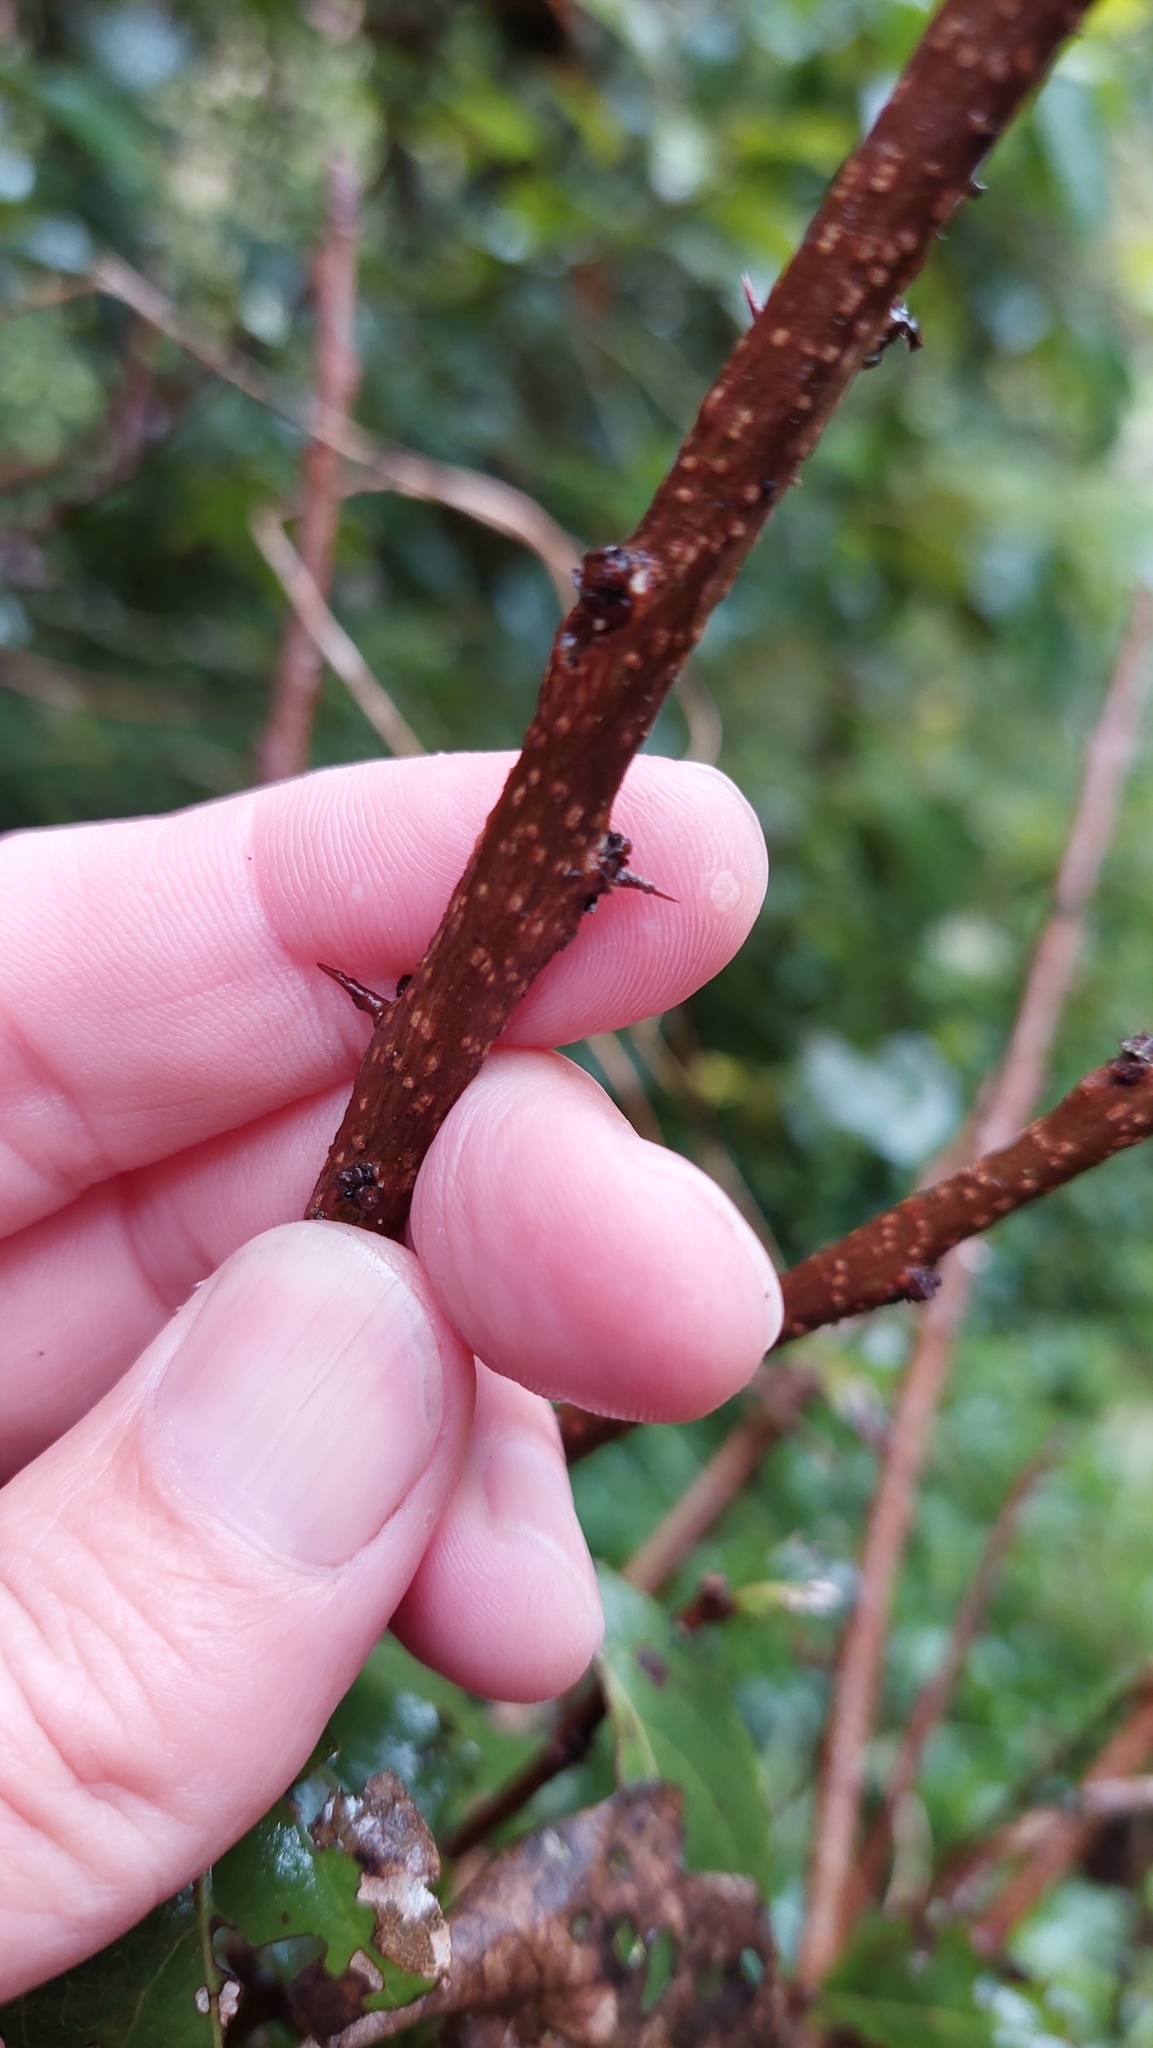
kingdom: Plantae
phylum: Tracheophyta
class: Magnoliopsida
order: Malpighiales
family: Salicaceae
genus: Xylosma
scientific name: Xylosma spiculifera
